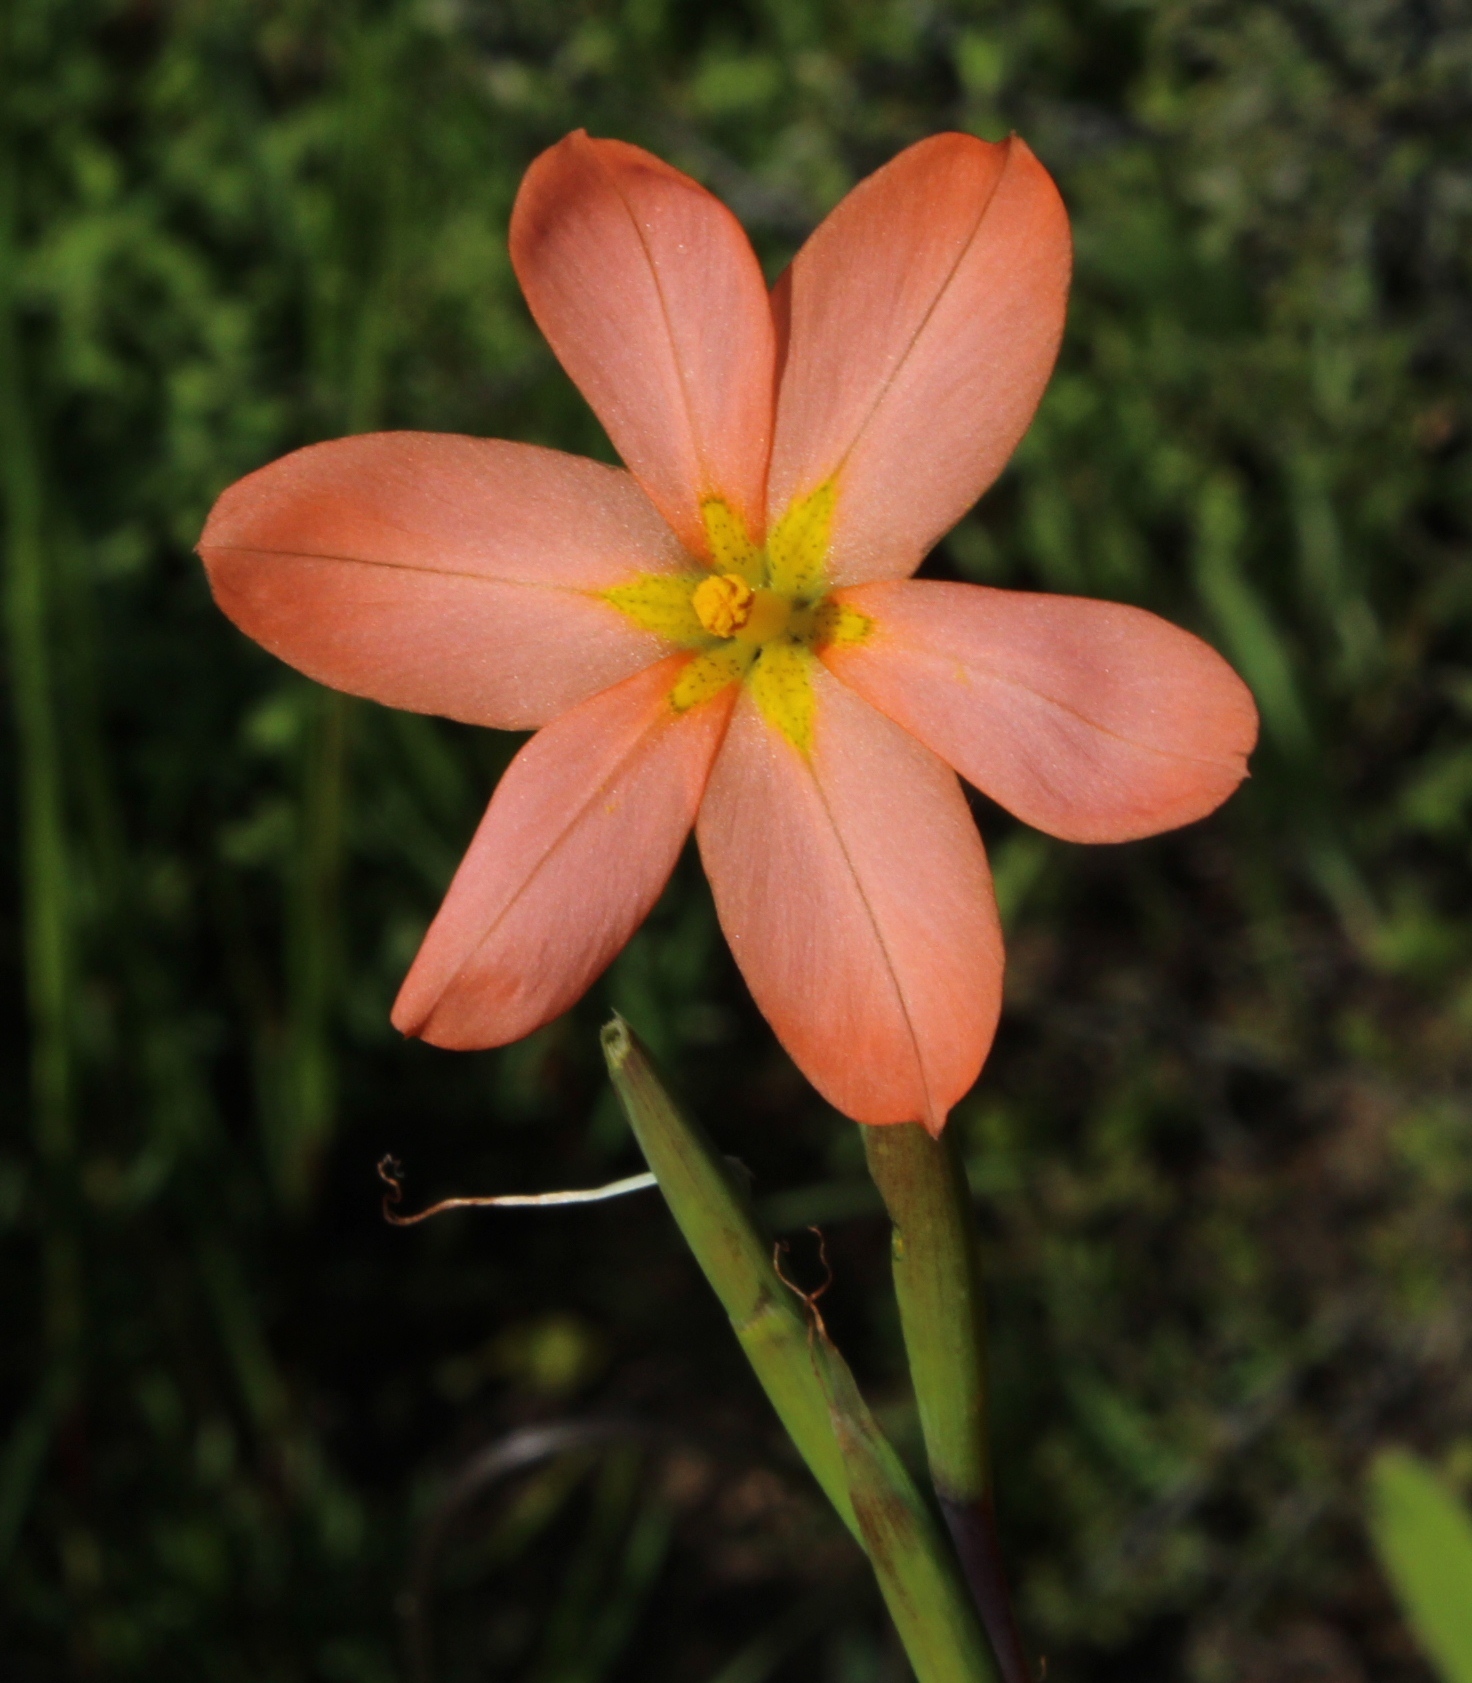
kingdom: Plantae
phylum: Tracheophyta
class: Liliopsida
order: Asparagales
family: Iridaceae
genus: Moraea
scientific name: Moraea miniata
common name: Two-leaf cape-tulip
